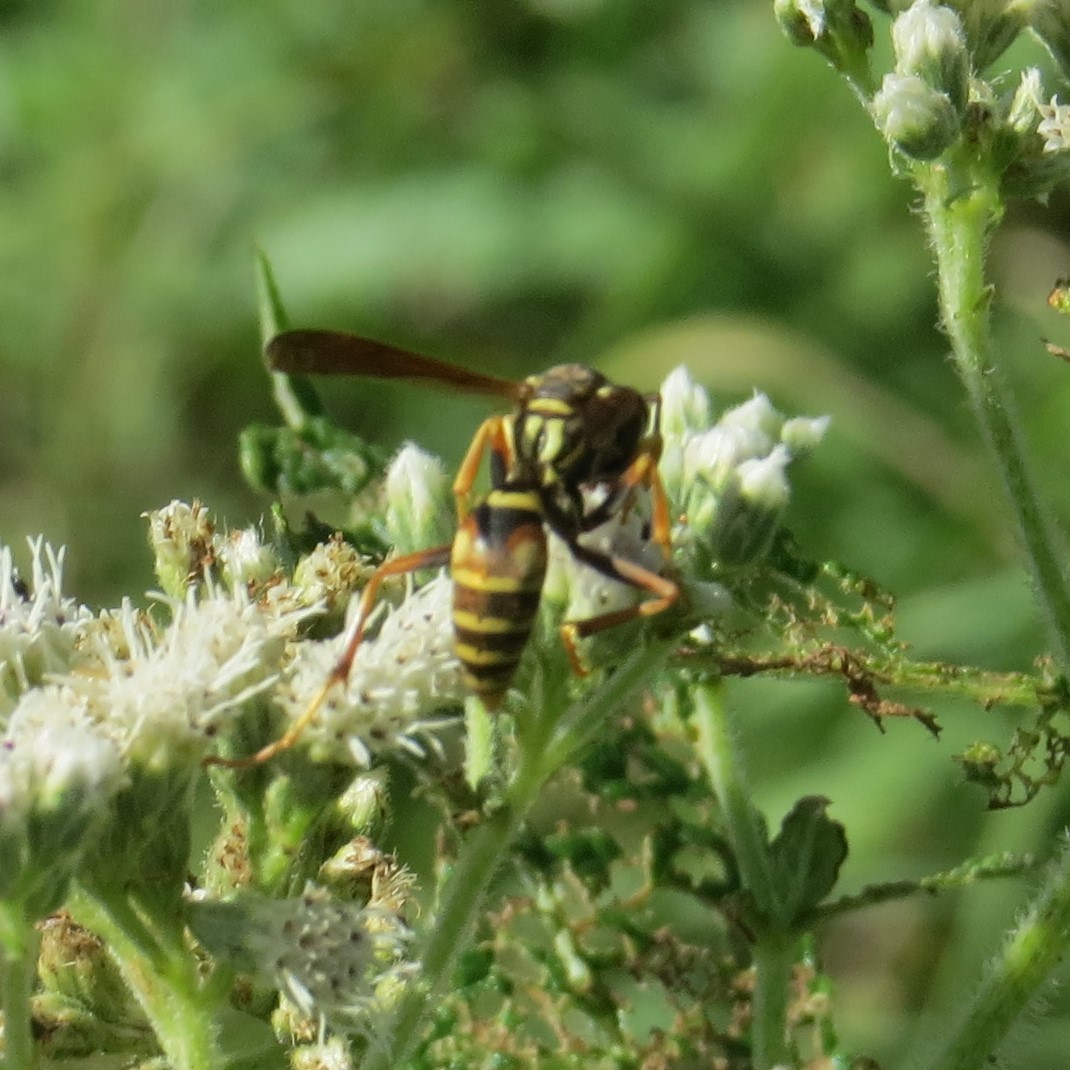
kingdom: Animalia
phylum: Arthropoda
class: Insecta
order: Hymenoptera
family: Eumenidae
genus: Polistes
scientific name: Polistes fuscatus
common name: Dark paper wasp
